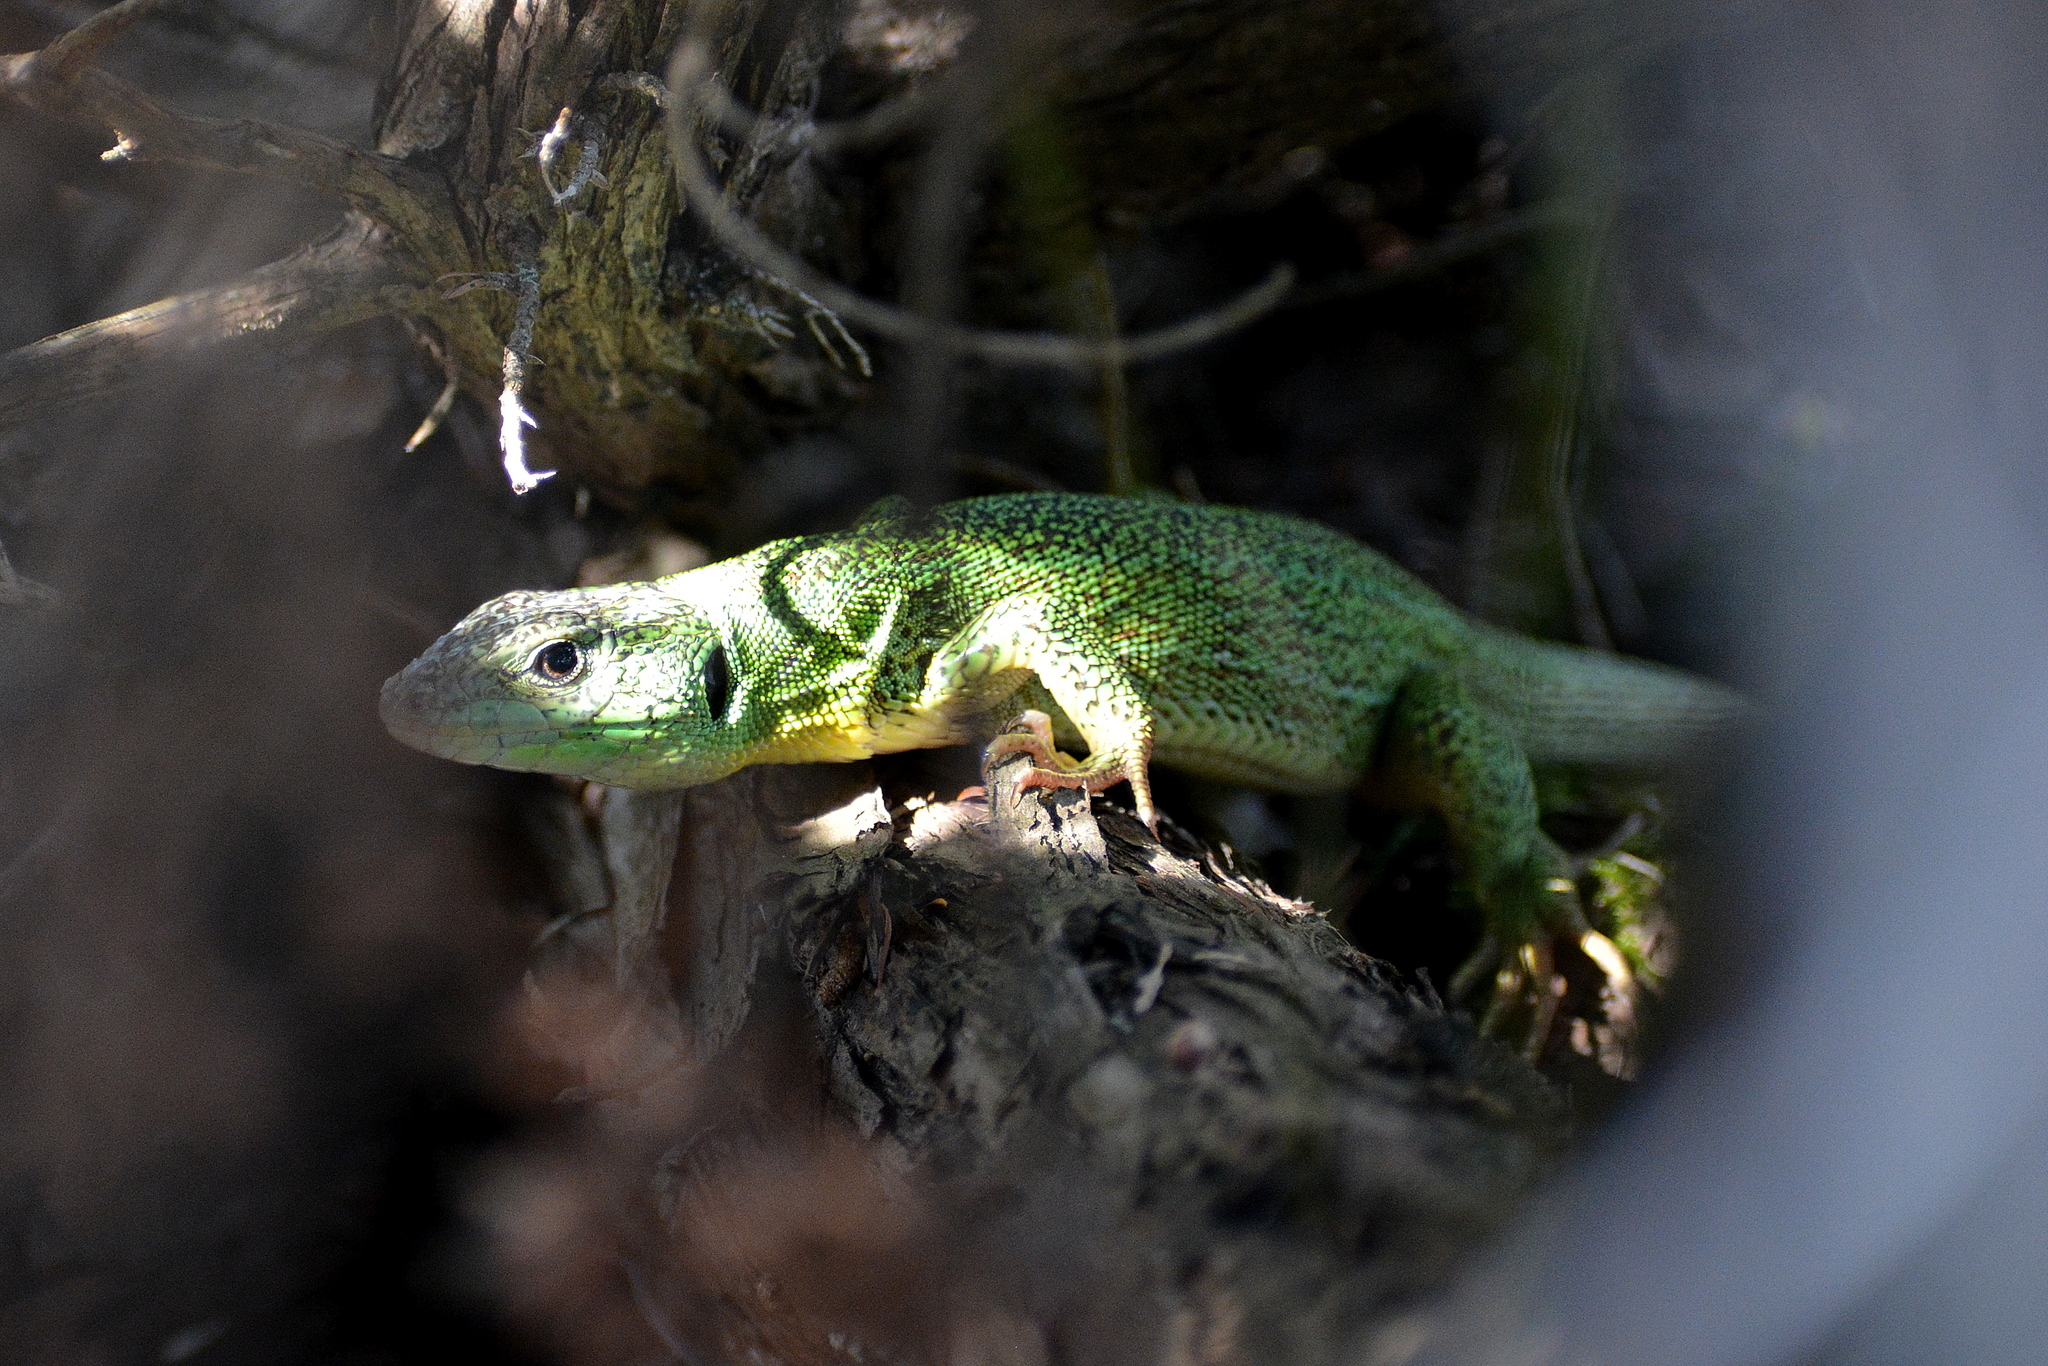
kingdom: Animalia
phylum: Chordata
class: Squamata
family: Lacertidae
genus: Lacerta
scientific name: Lacerta trilineata
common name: Balkan green lizard
